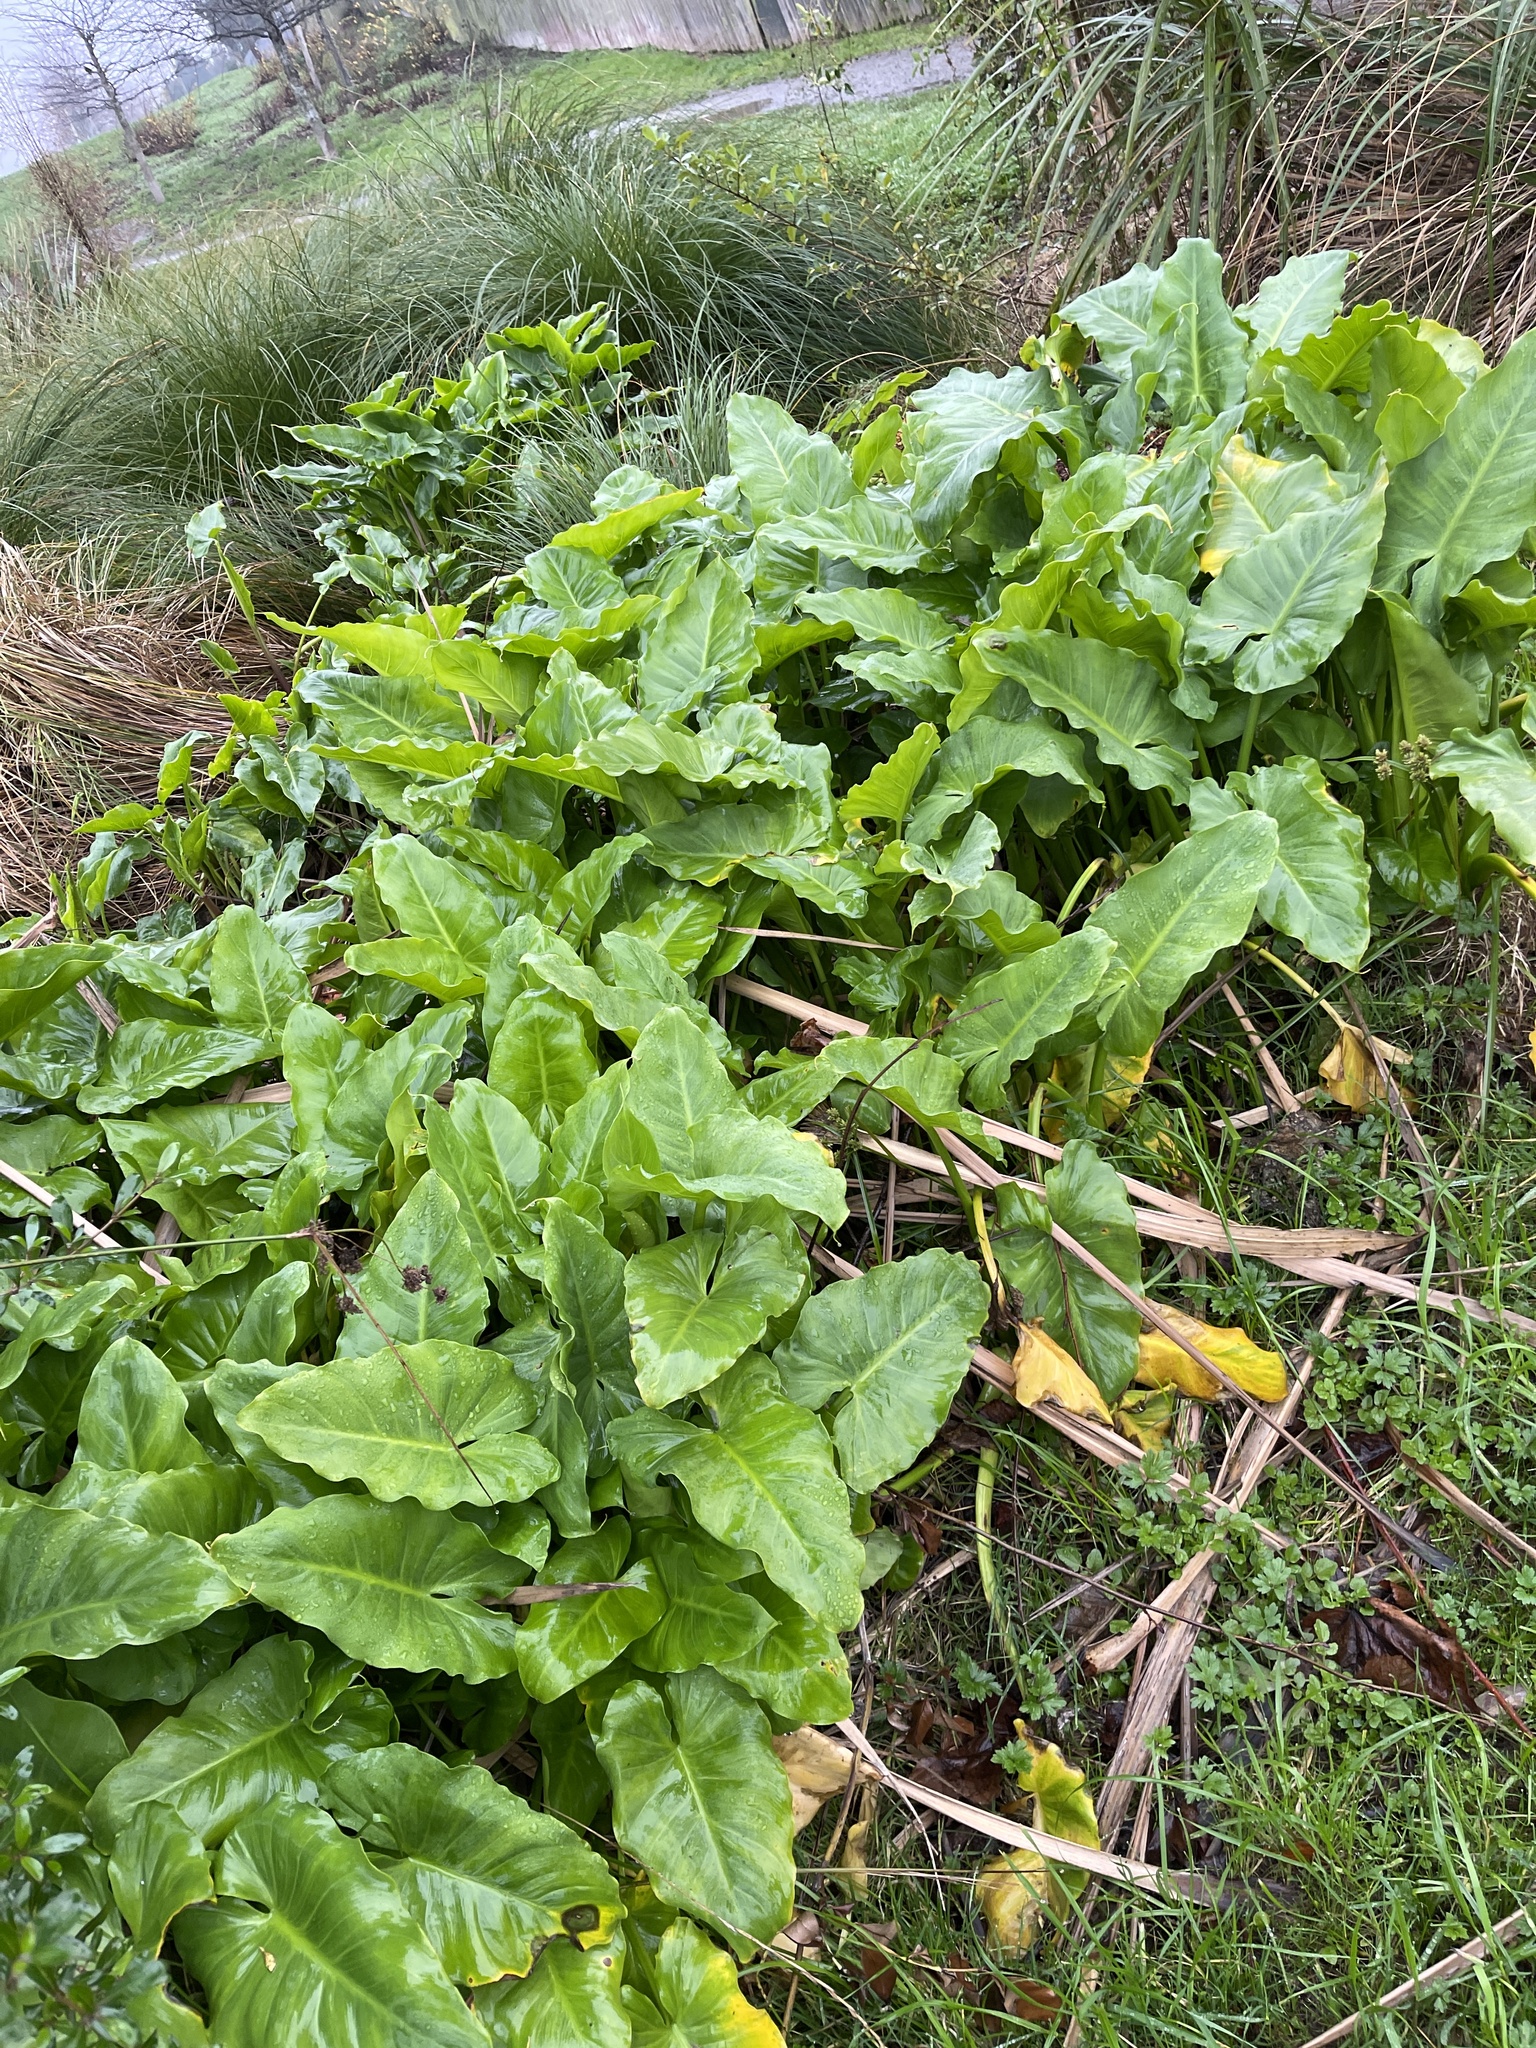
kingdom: Plantae
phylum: Tracheophyta
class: Liliopsida
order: Alismatales
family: Araceae
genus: Zantedeschia
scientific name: Zantedeschia aethiopica
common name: Altar-lily
